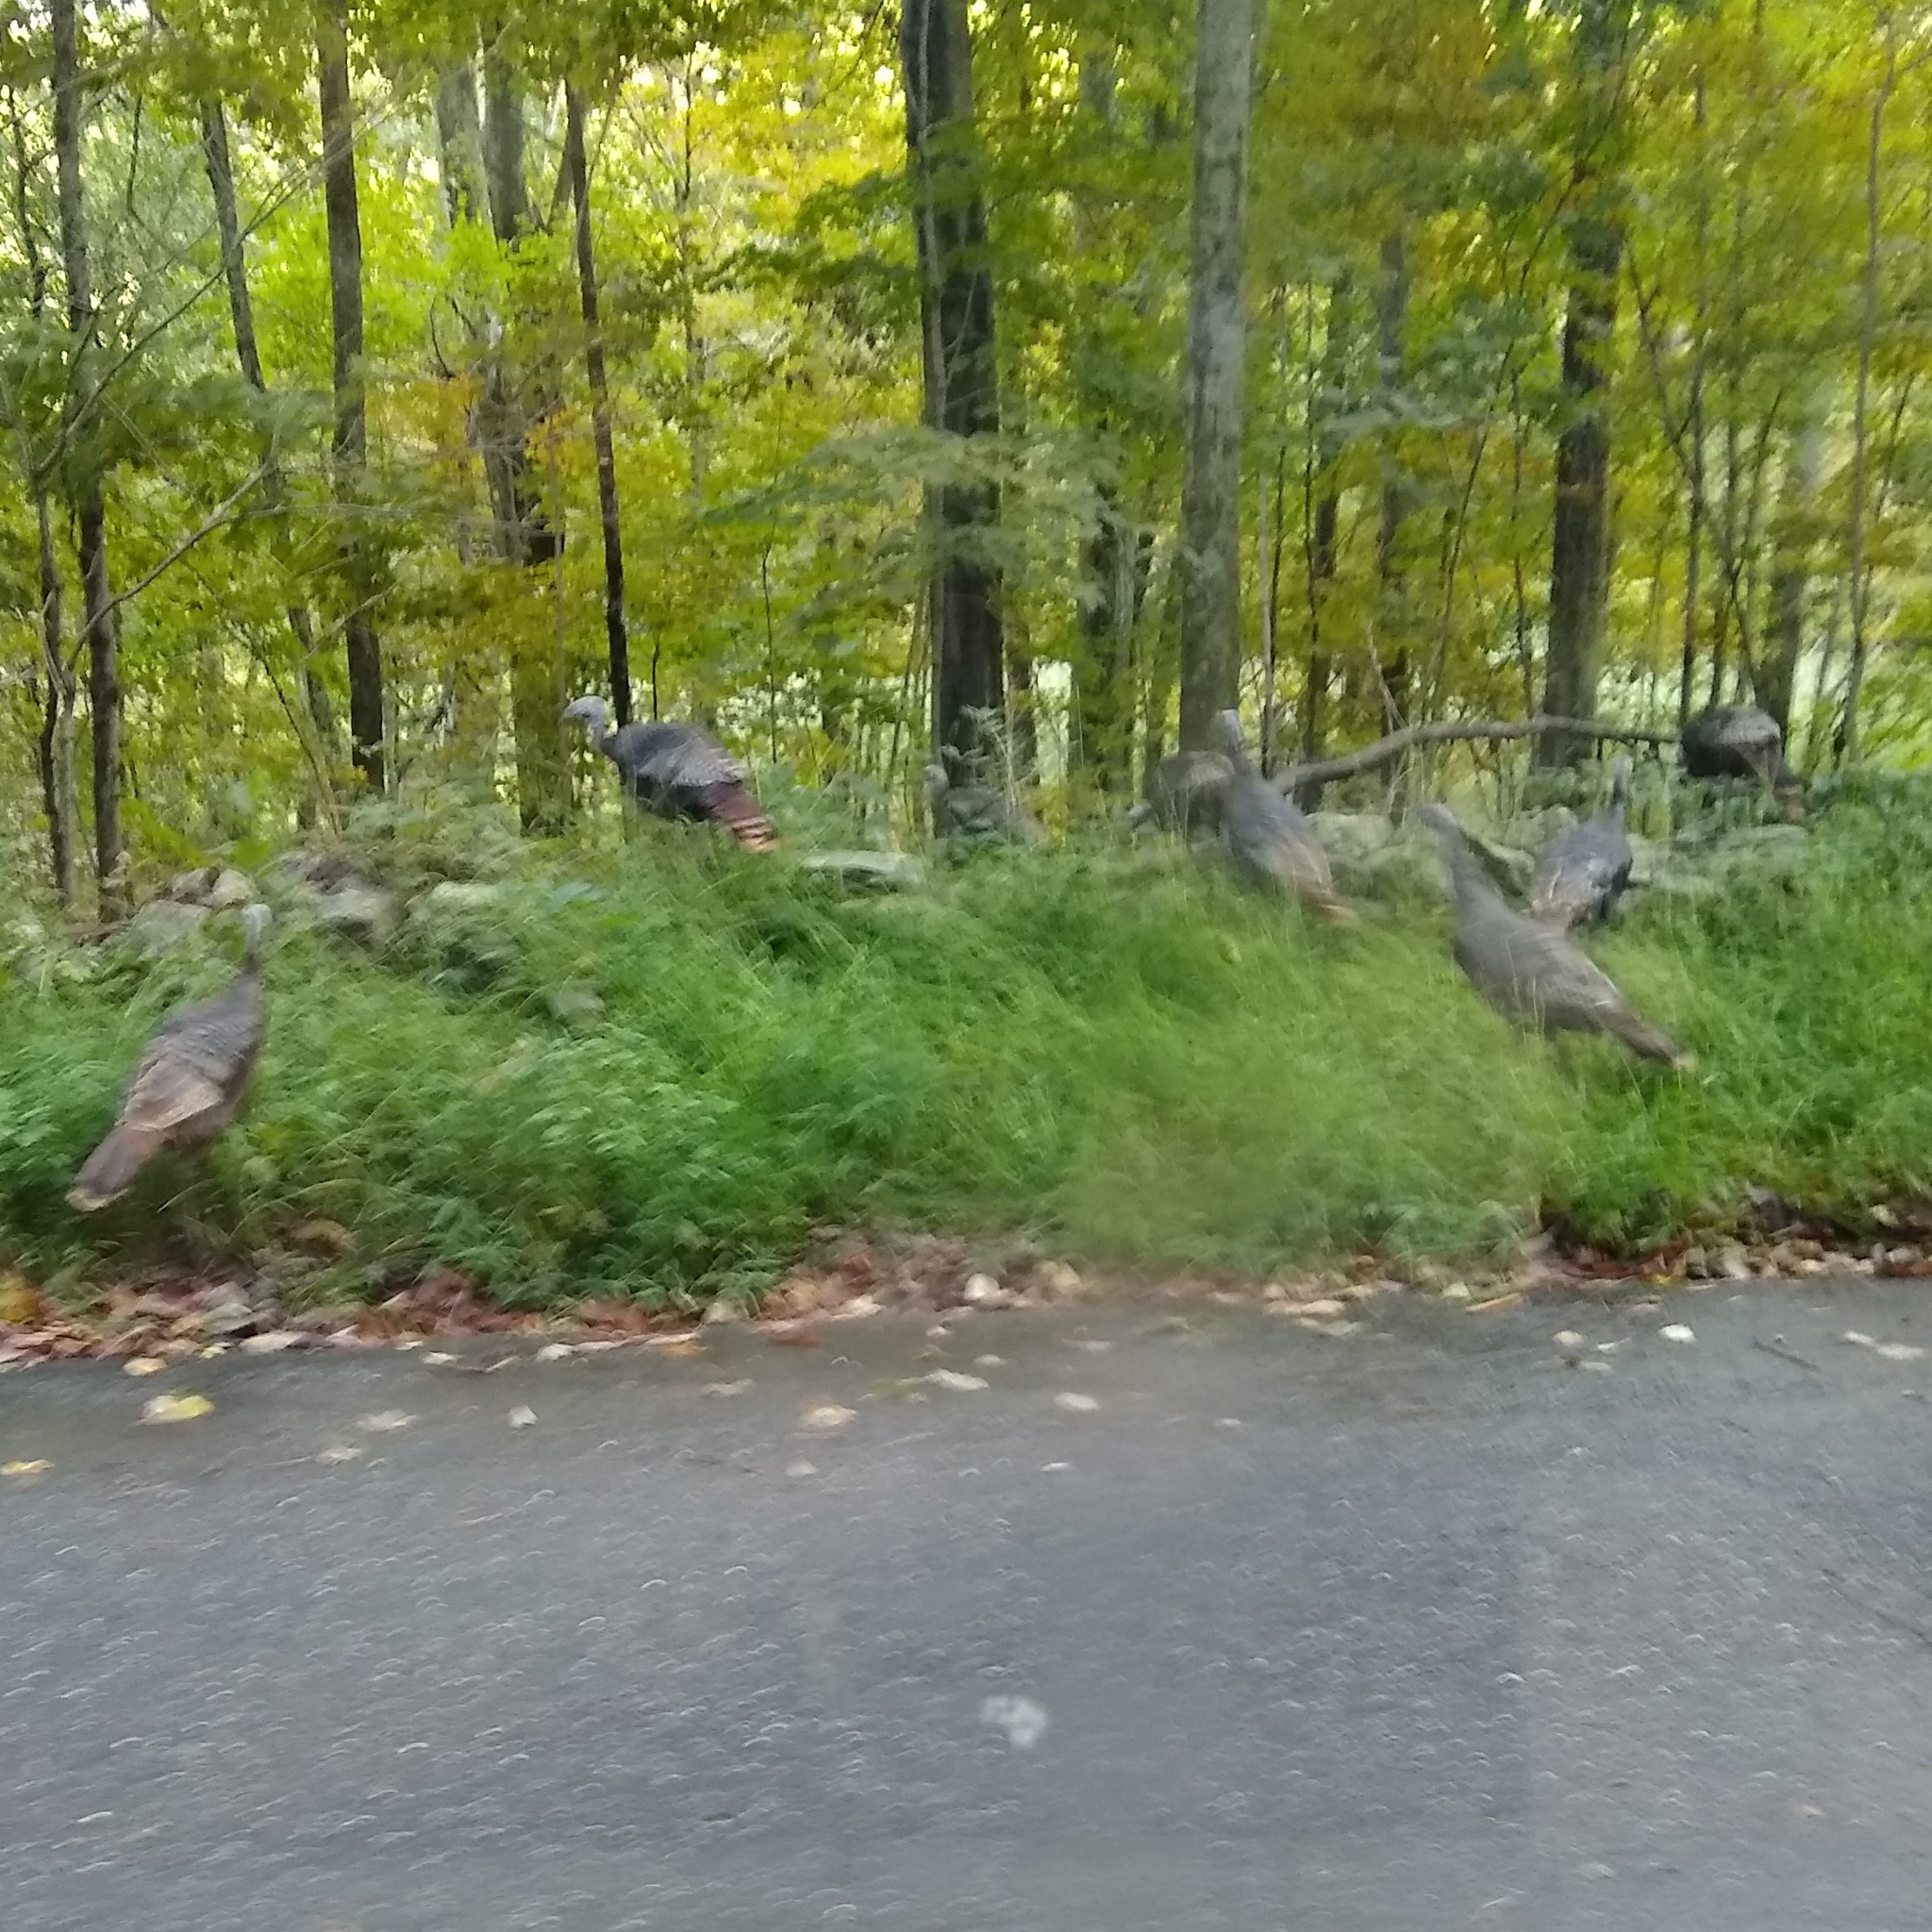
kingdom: Animalia
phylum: Chordata
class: Aves
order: Galliformes
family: Phasianidae
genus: Meleagris
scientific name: Meleagris gallopavo
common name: Wild turkey
